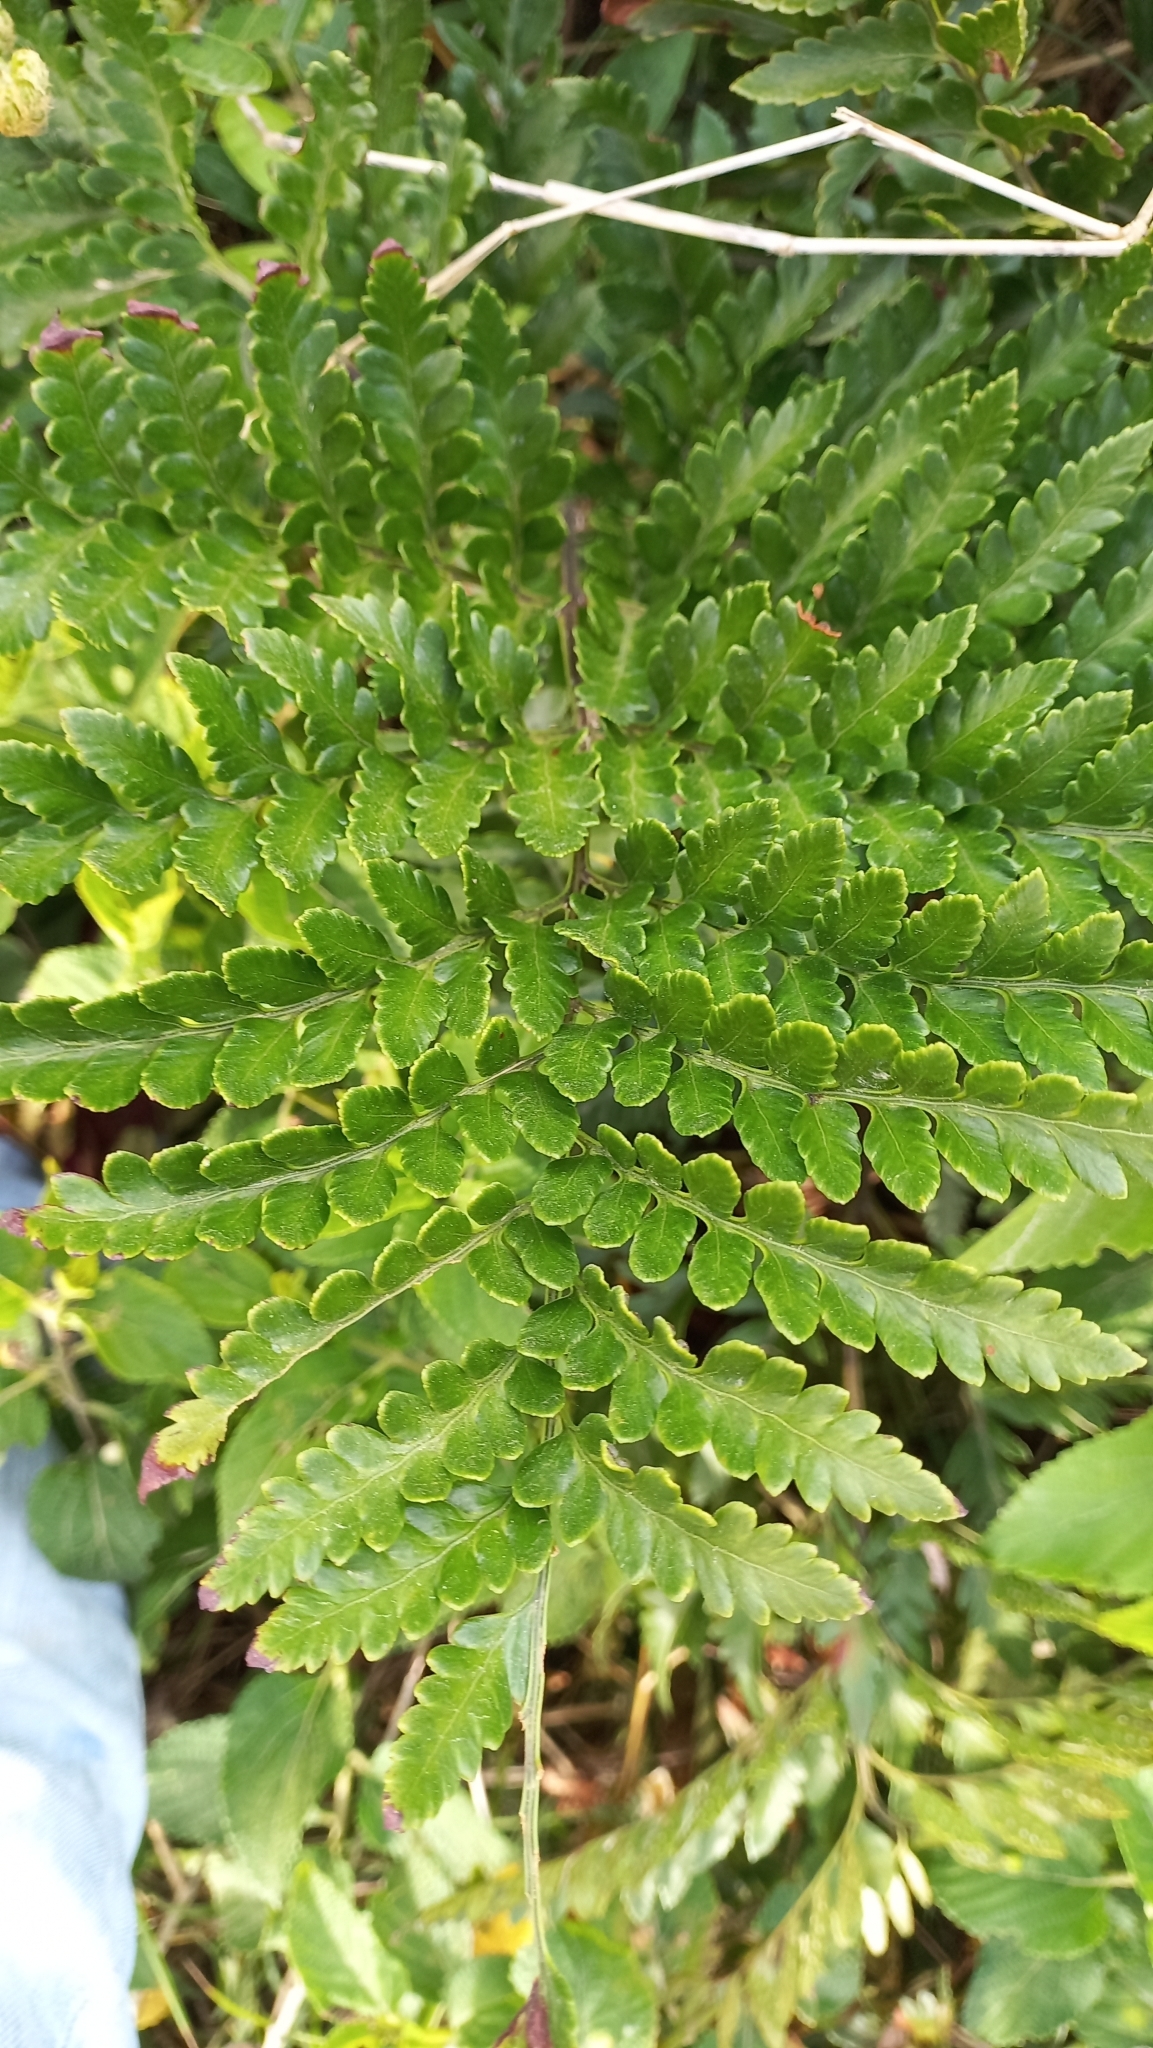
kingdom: Plantae
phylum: Tracheophyta
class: Polypodiopsida
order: Polypodiales
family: Dryopteridaceae
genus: Rumohra
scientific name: Rumohra adiantiformis
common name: Leather fern
